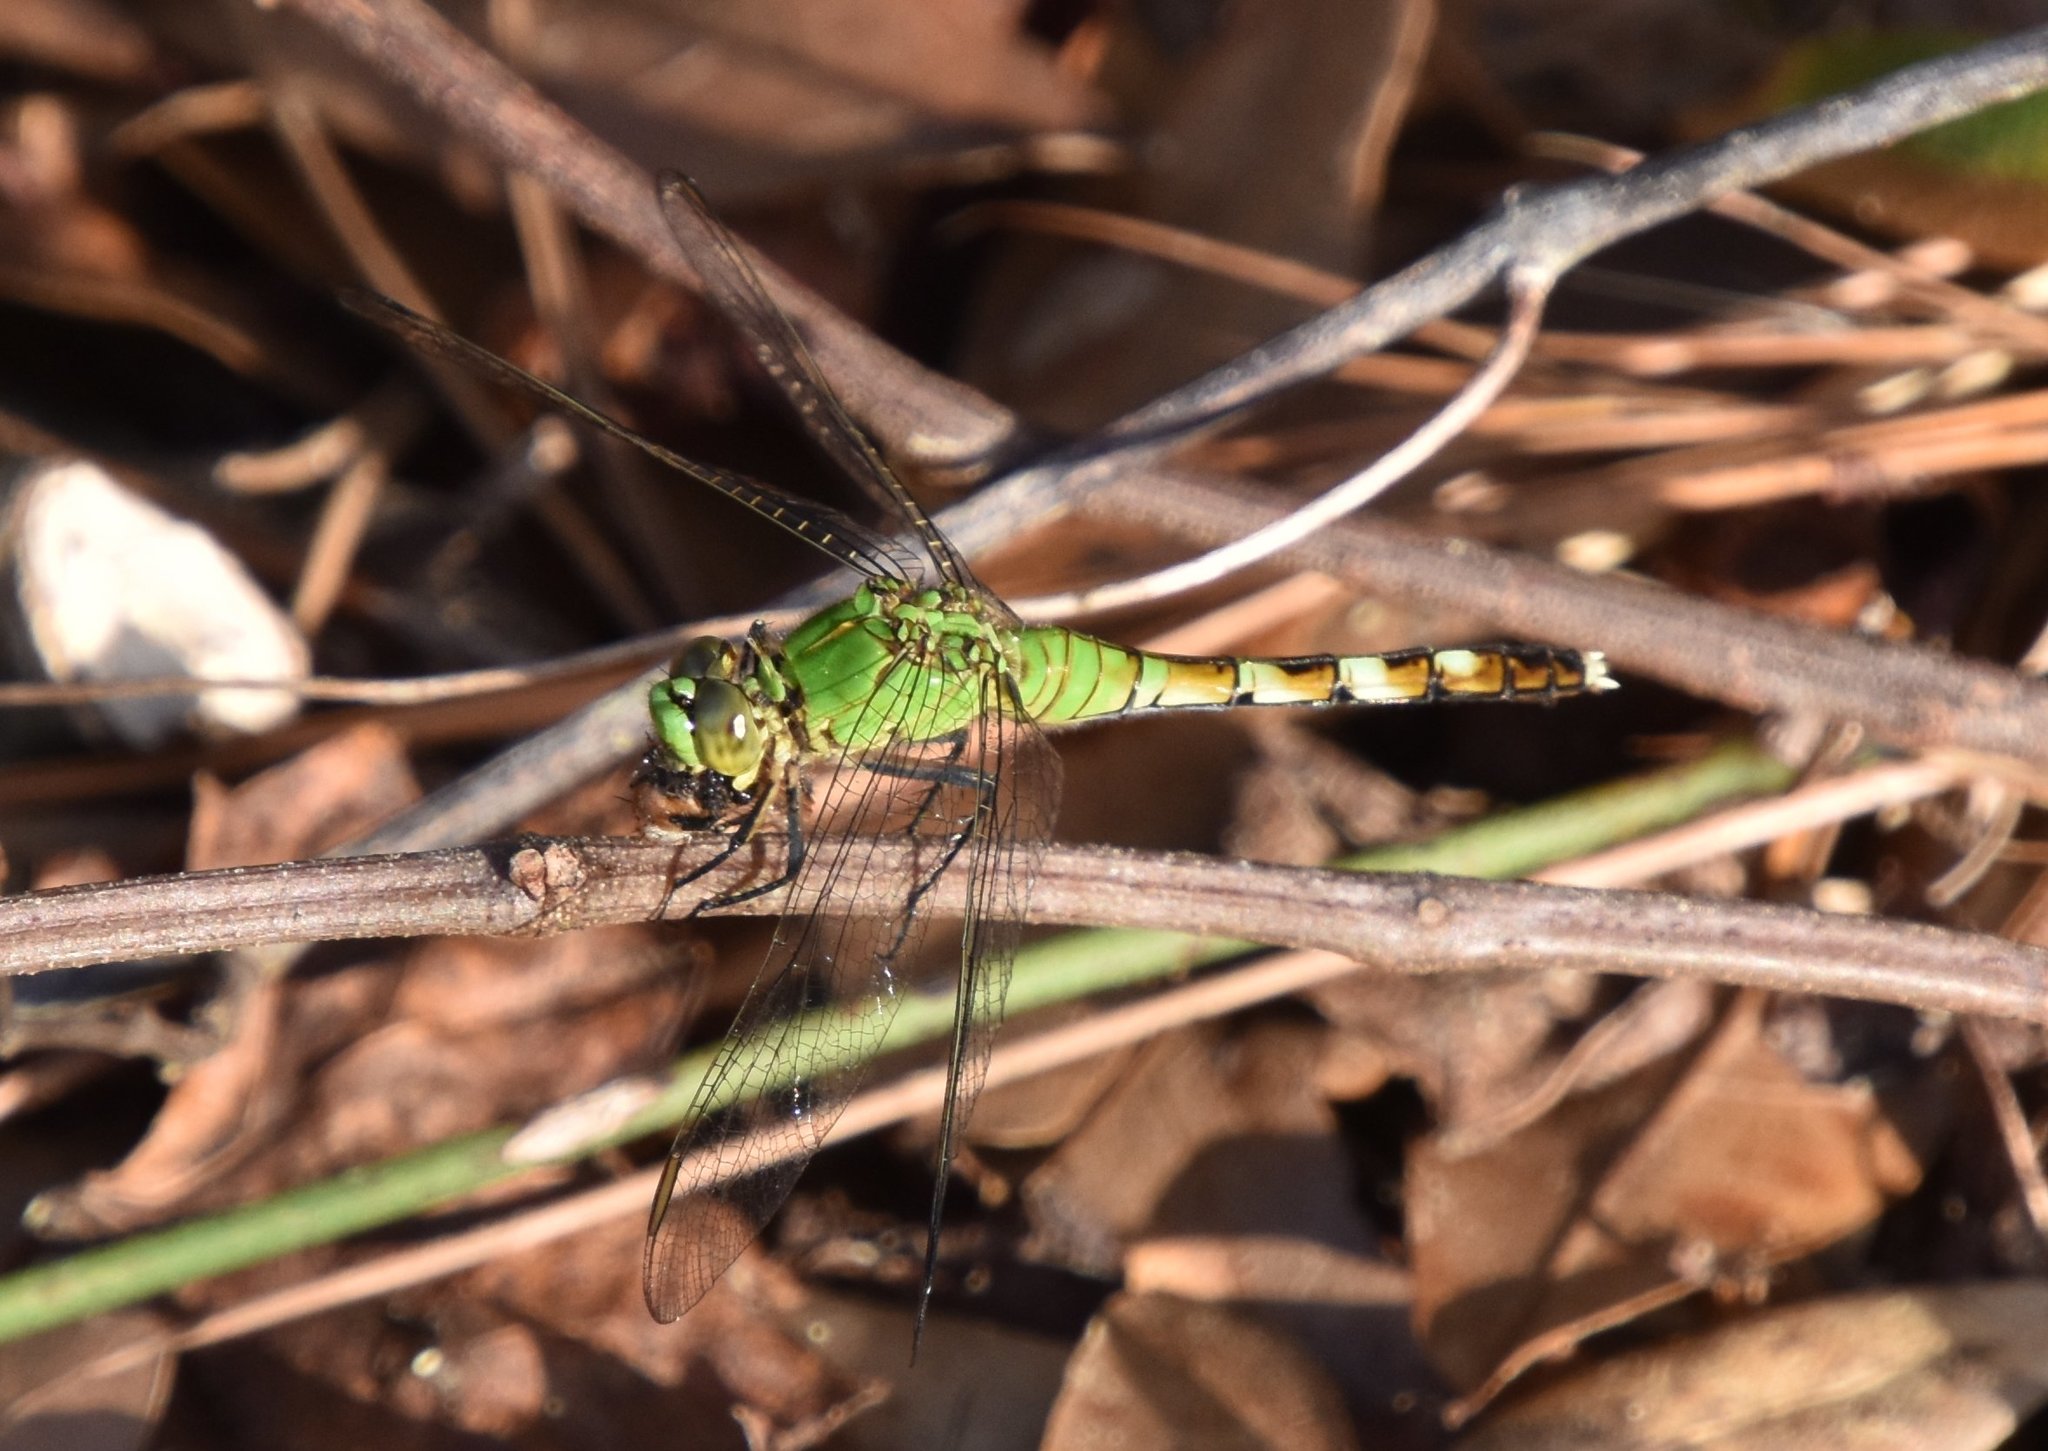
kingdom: Animalia
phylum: Arthropoda
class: Insecta
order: Odonata
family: Libellulidae
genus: Erythemis
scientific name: Erythemis simplicicollis
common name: Eastern pondhawk
